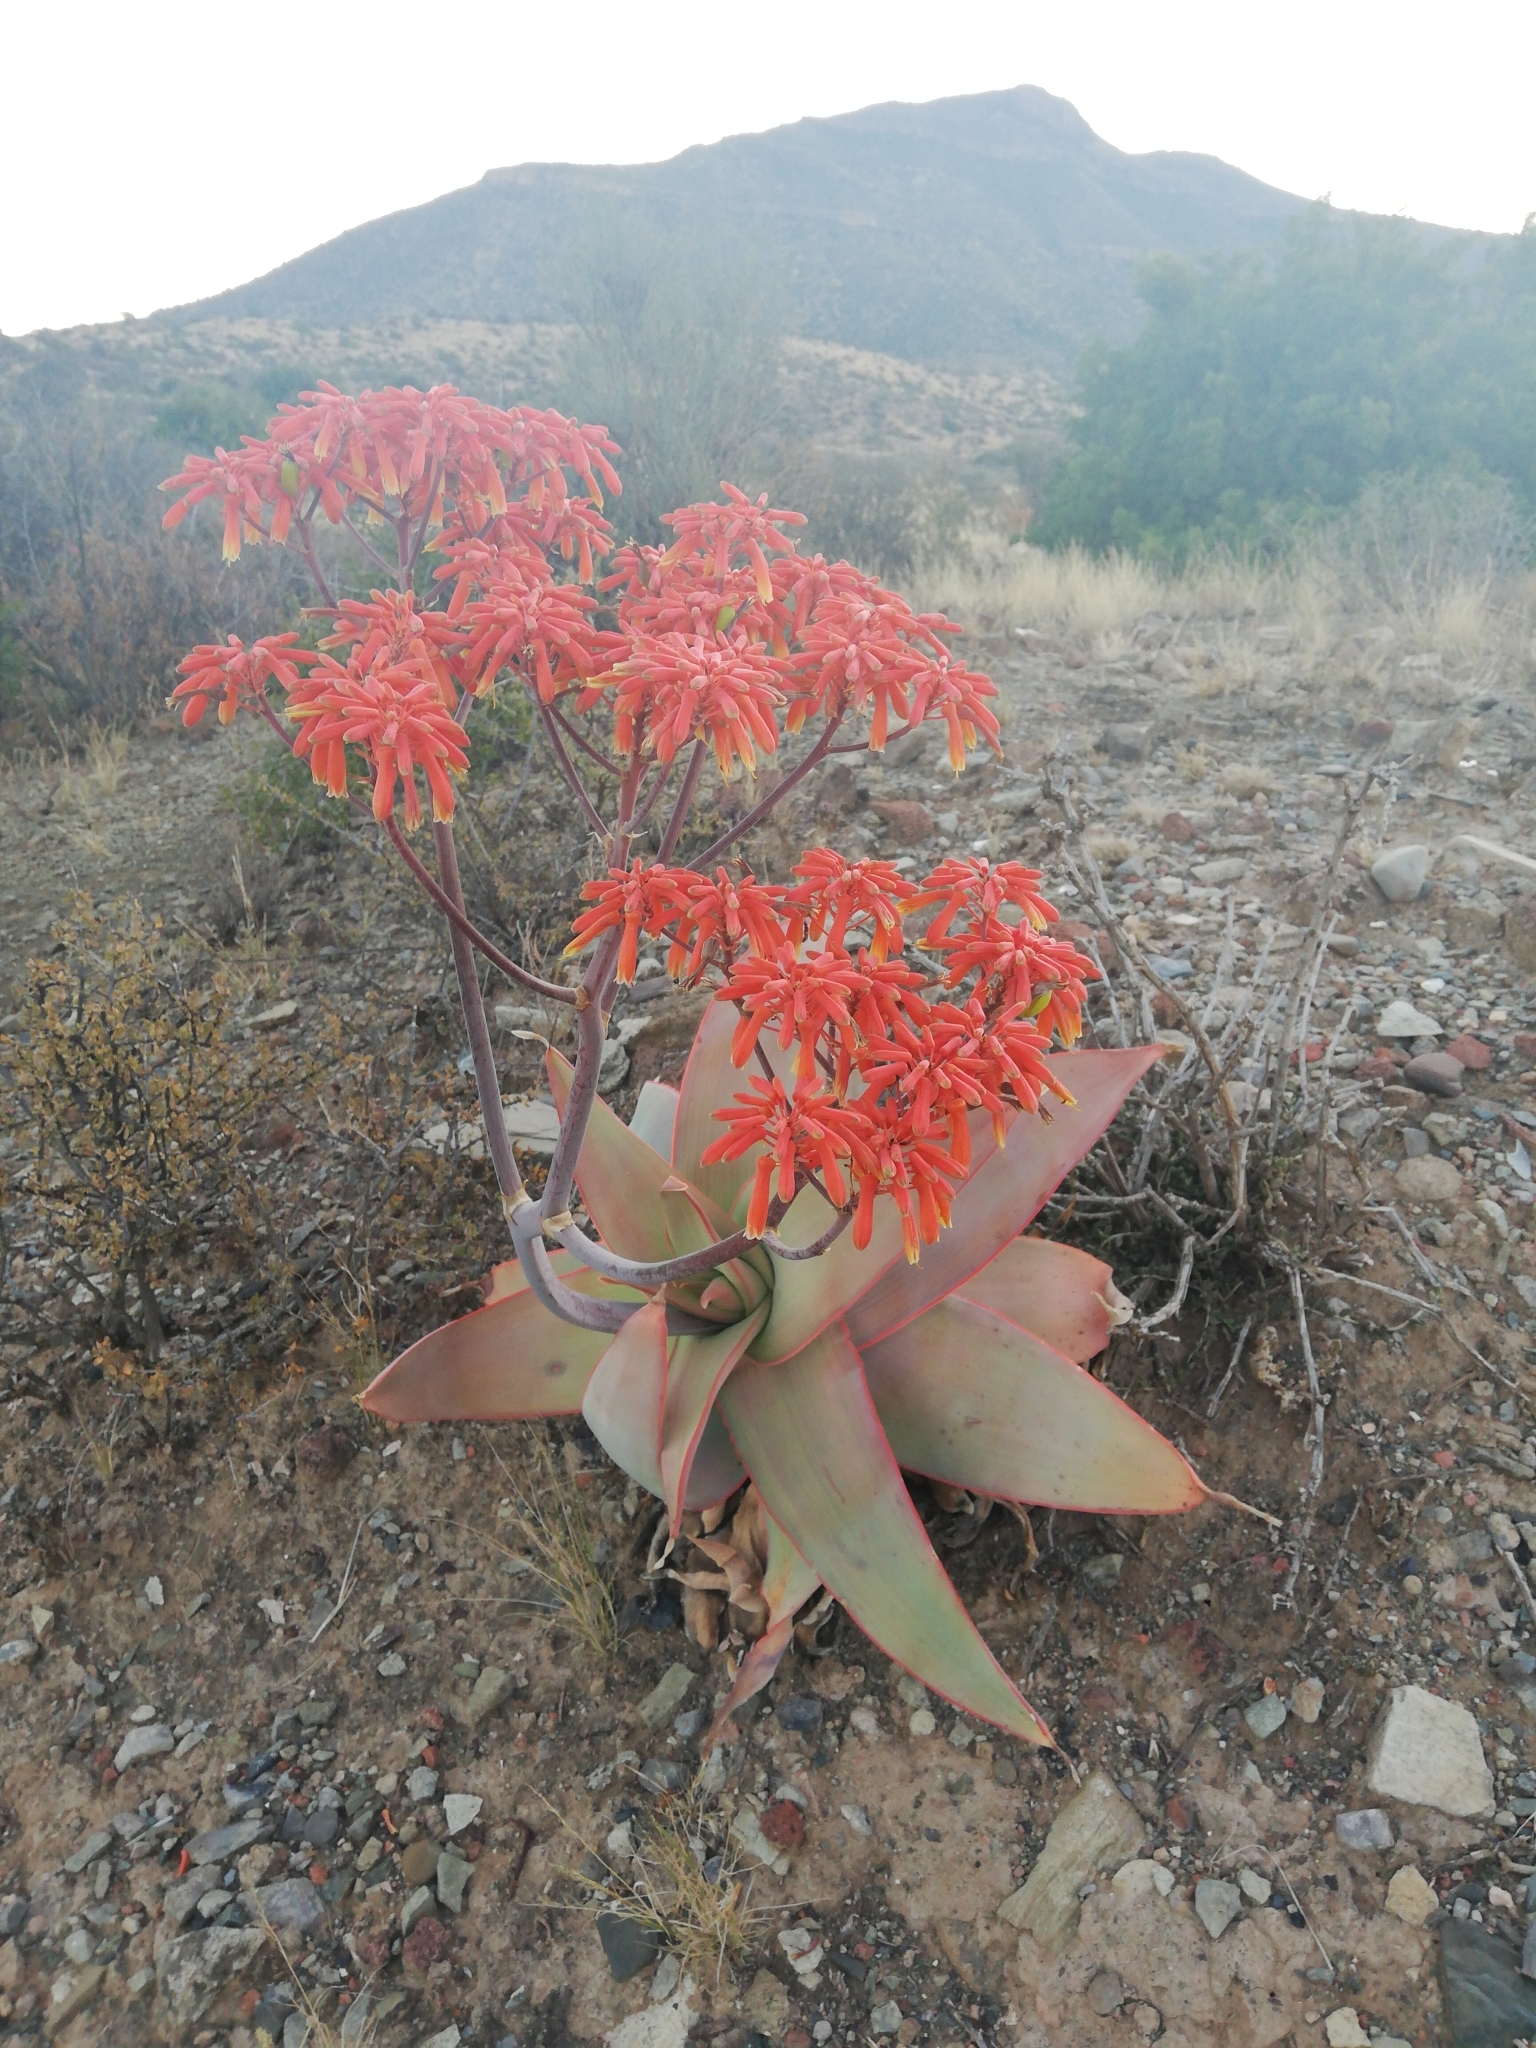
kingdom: Plantae
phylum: Tracheophyta
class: Liliopsida
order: Asparagales
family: Asphodelaceae
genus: Aloe
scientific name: Aloe striata
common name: Coral aloe
